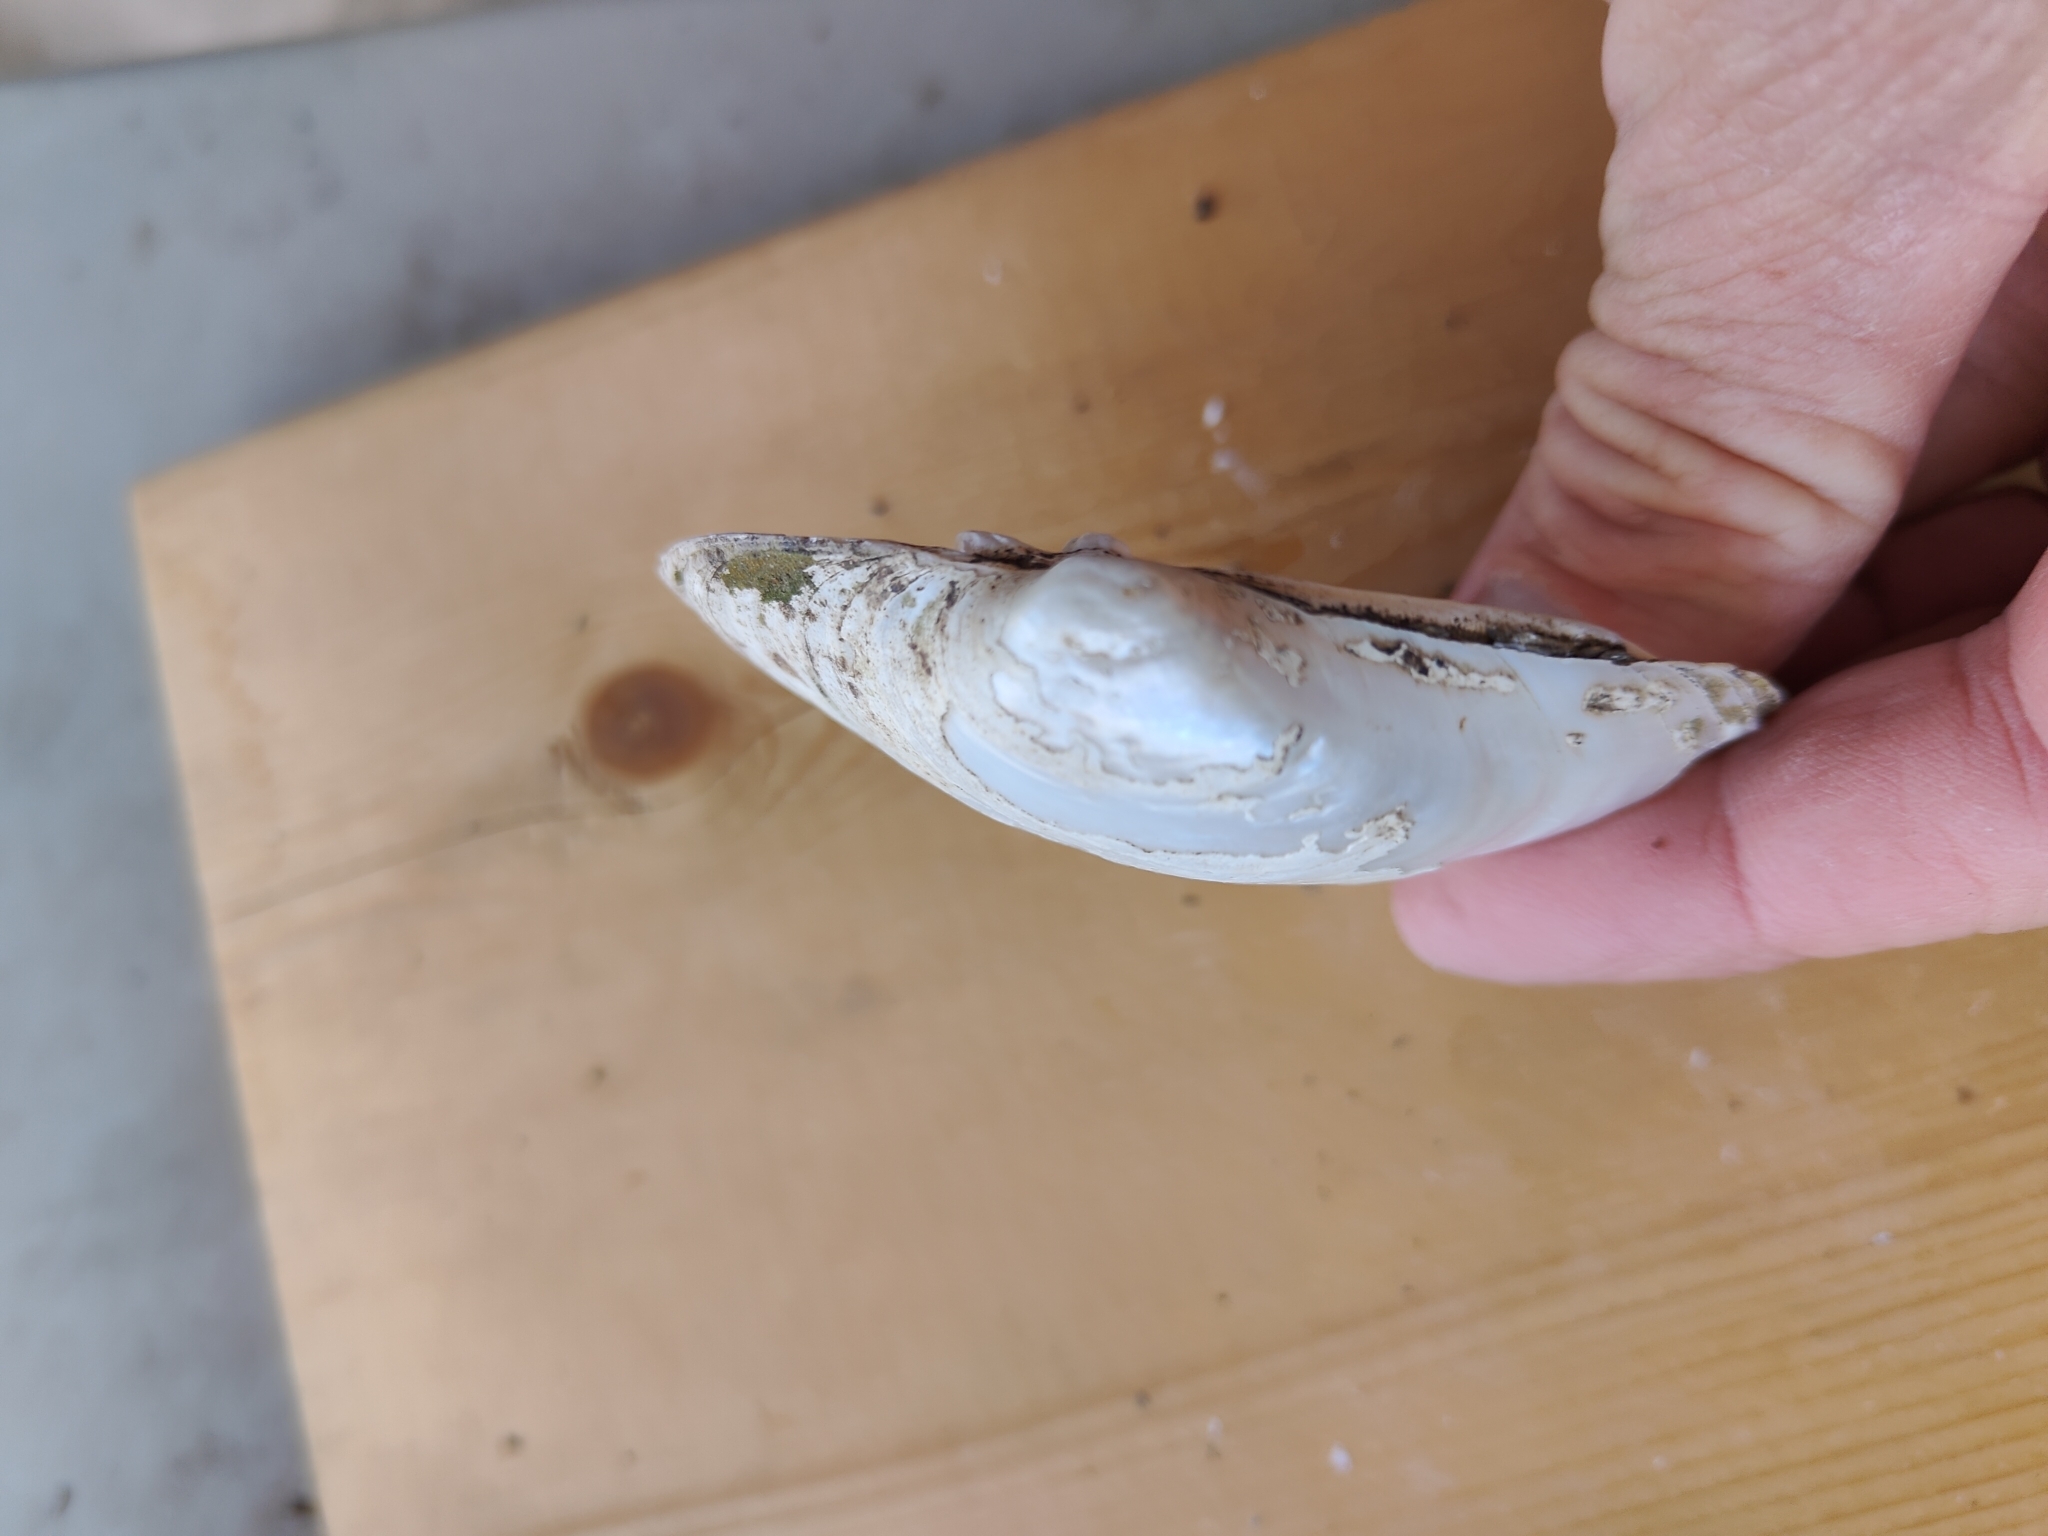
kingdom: Animalia
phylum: Mollusca
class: Bivalvia
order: Unionida
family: Unionidae
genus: Lampsilis
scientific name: Lampsilis cardium
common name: Plain pocketbook
